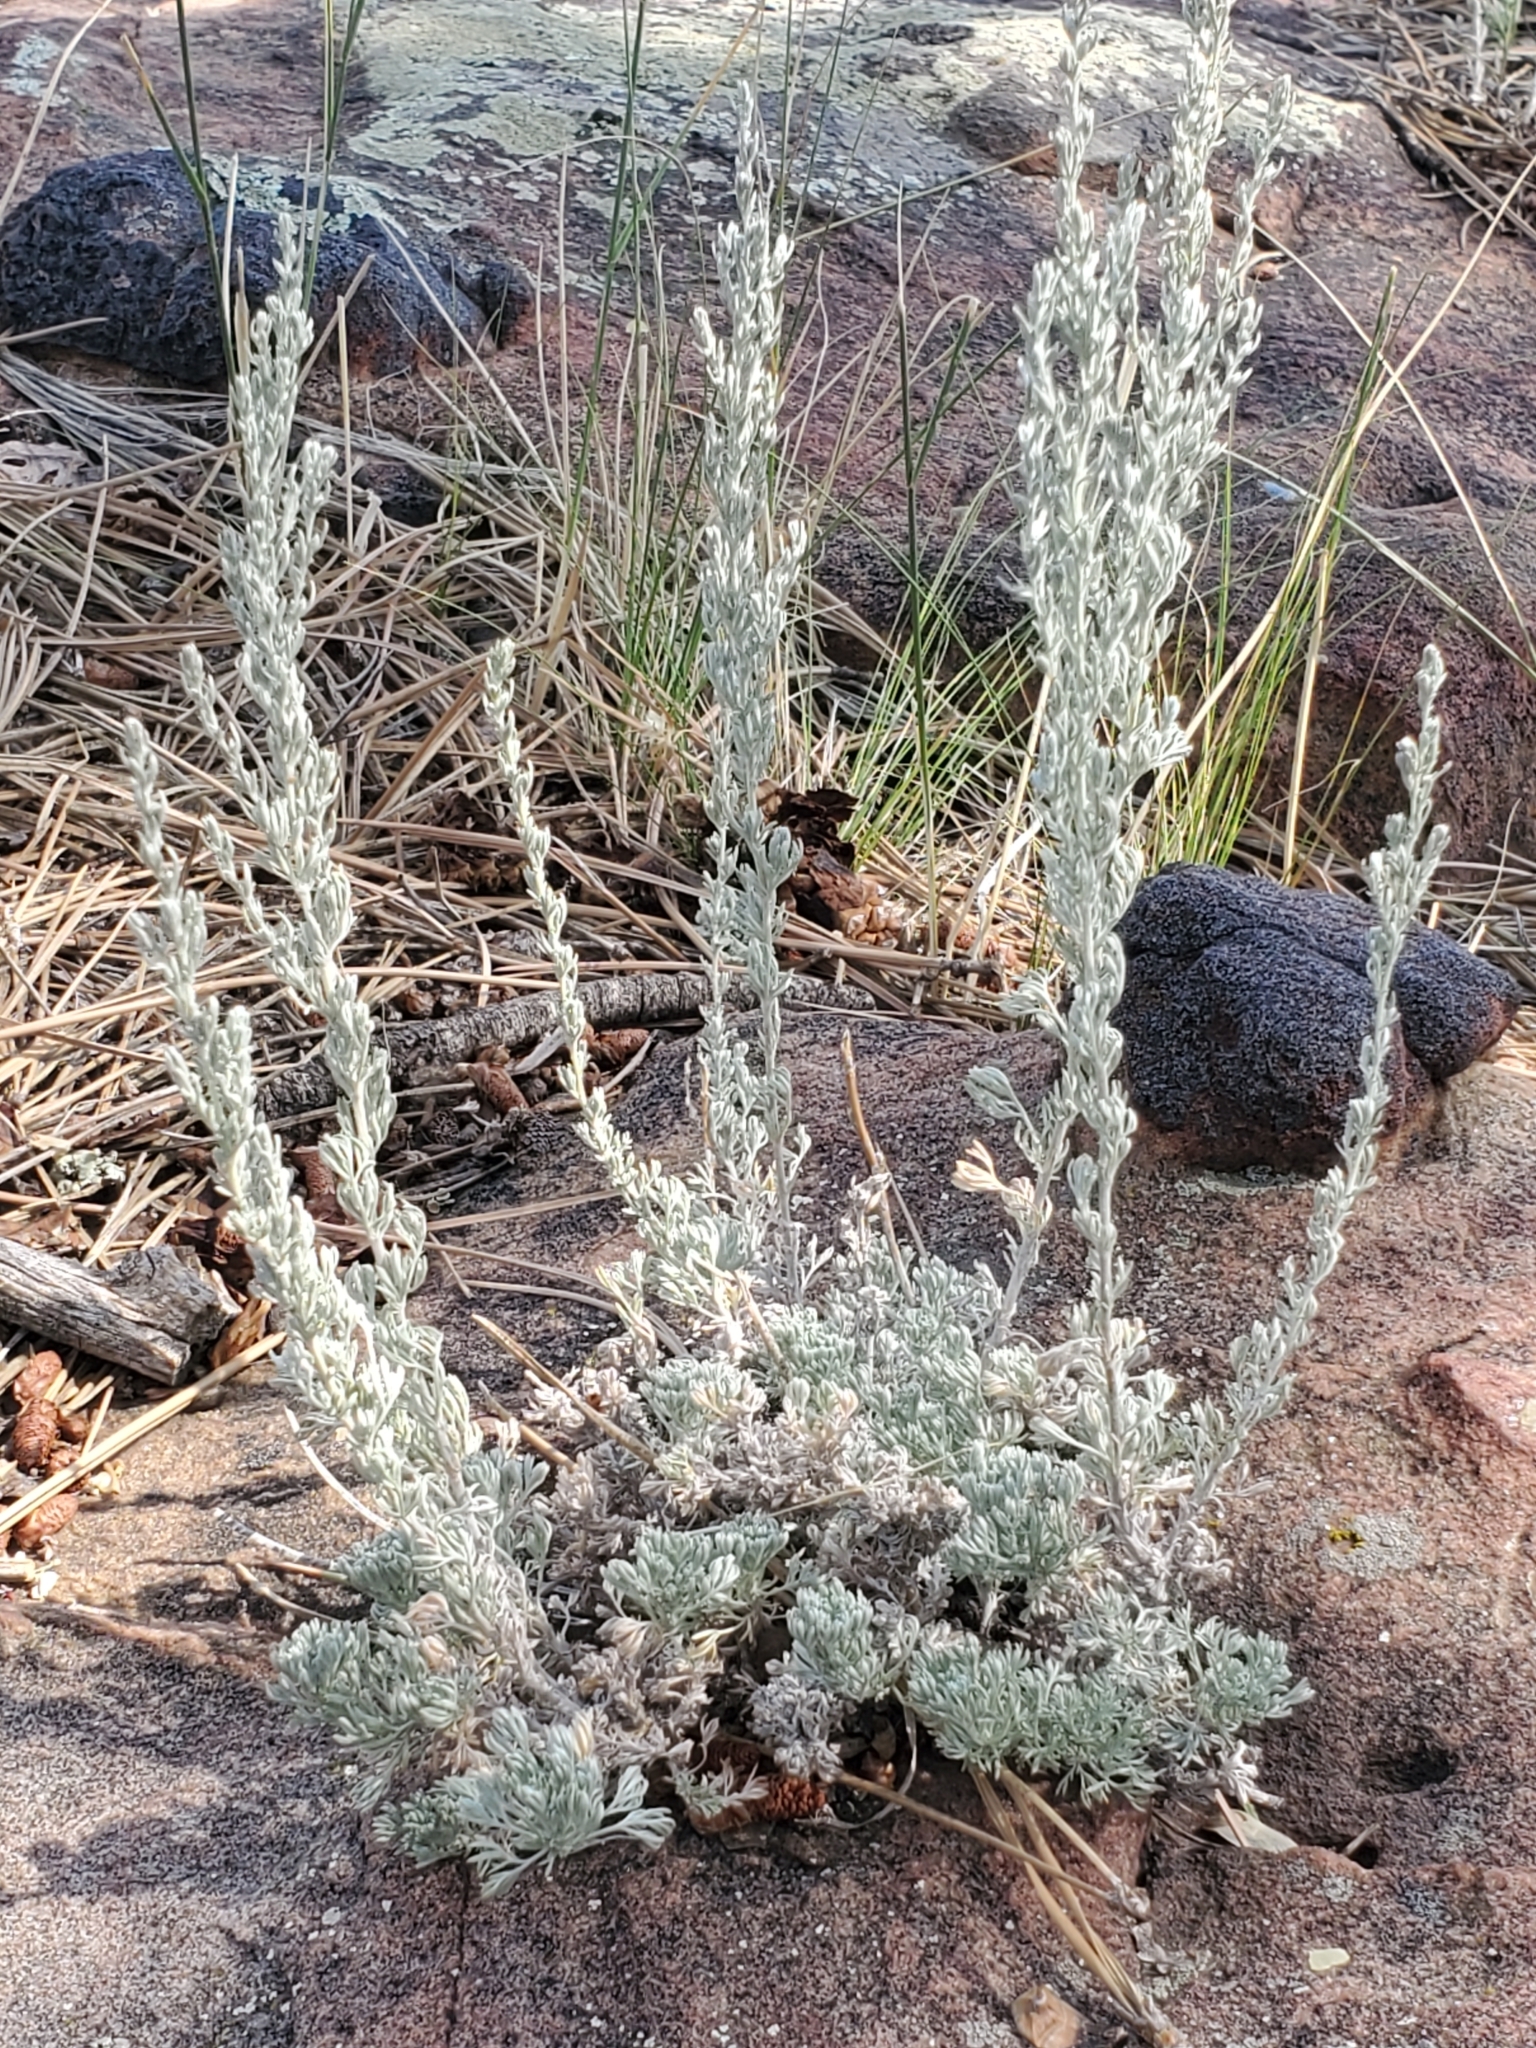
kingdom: Plantae
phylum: Tracheophyta
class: Magnoliopsida
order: Asterales
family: Asteraceae
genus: Artemisia
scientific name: Artemisia frigida
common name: Prairie sagewort
